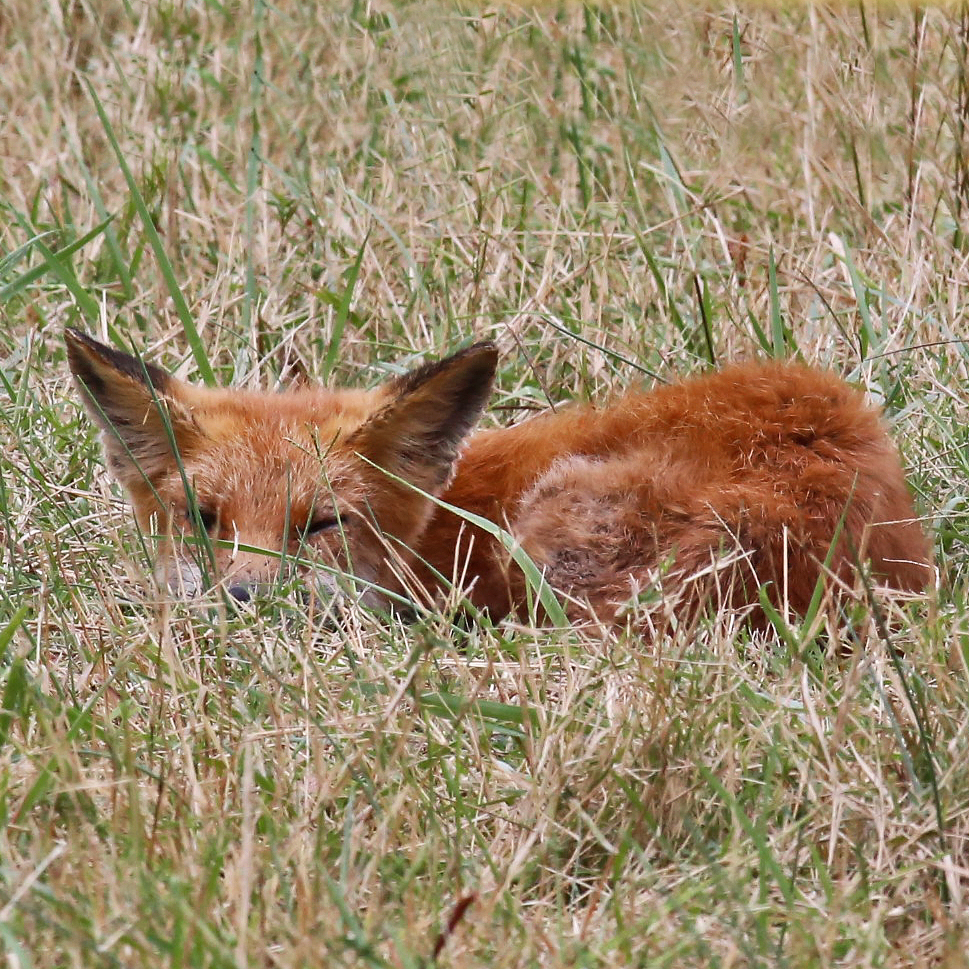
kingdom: Animalia
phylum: Chordata
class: Mammalia
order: Carnivora
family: Canidae
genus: Vulpes
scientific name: Vulpes vulpes
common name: Red fox
